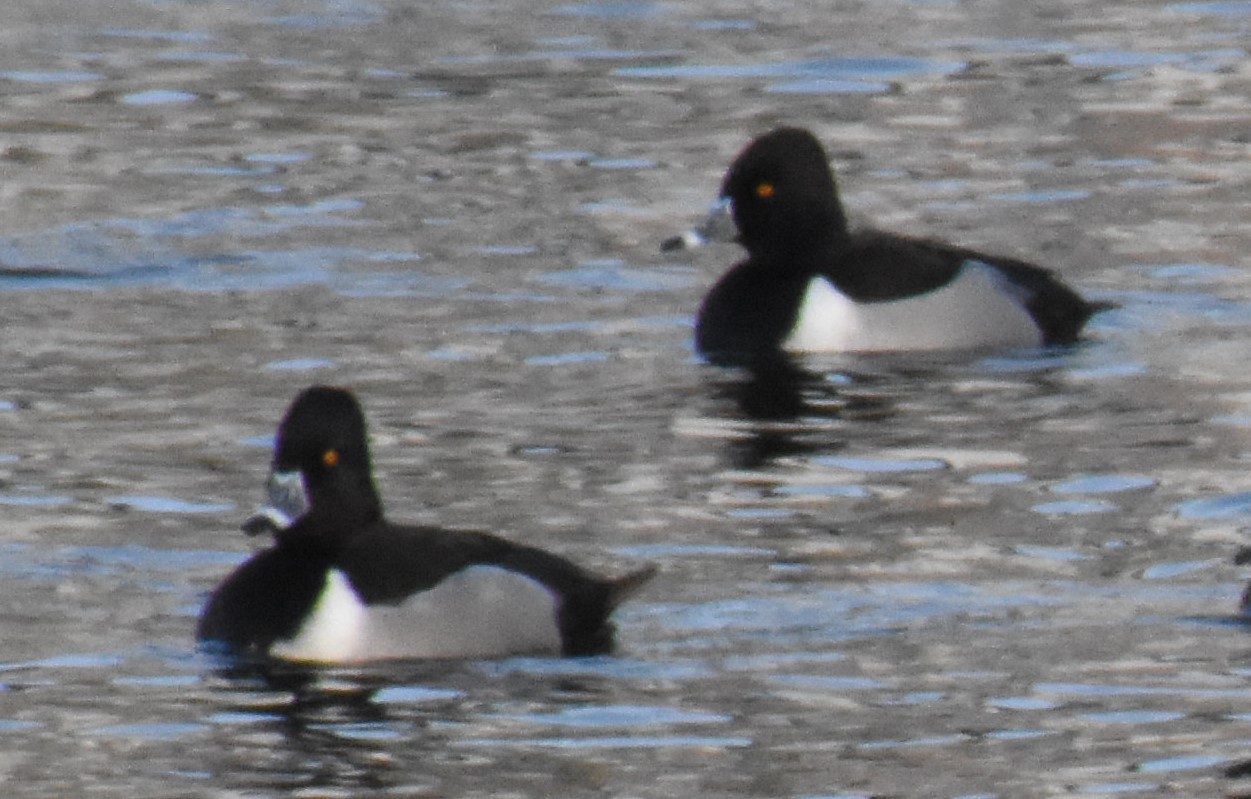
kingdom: Animalia
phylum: Chordata
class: Aves
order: Anseriformes
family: Anatidae
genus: Aythya
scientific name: Aythya collaris
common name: Ring-necked duck
